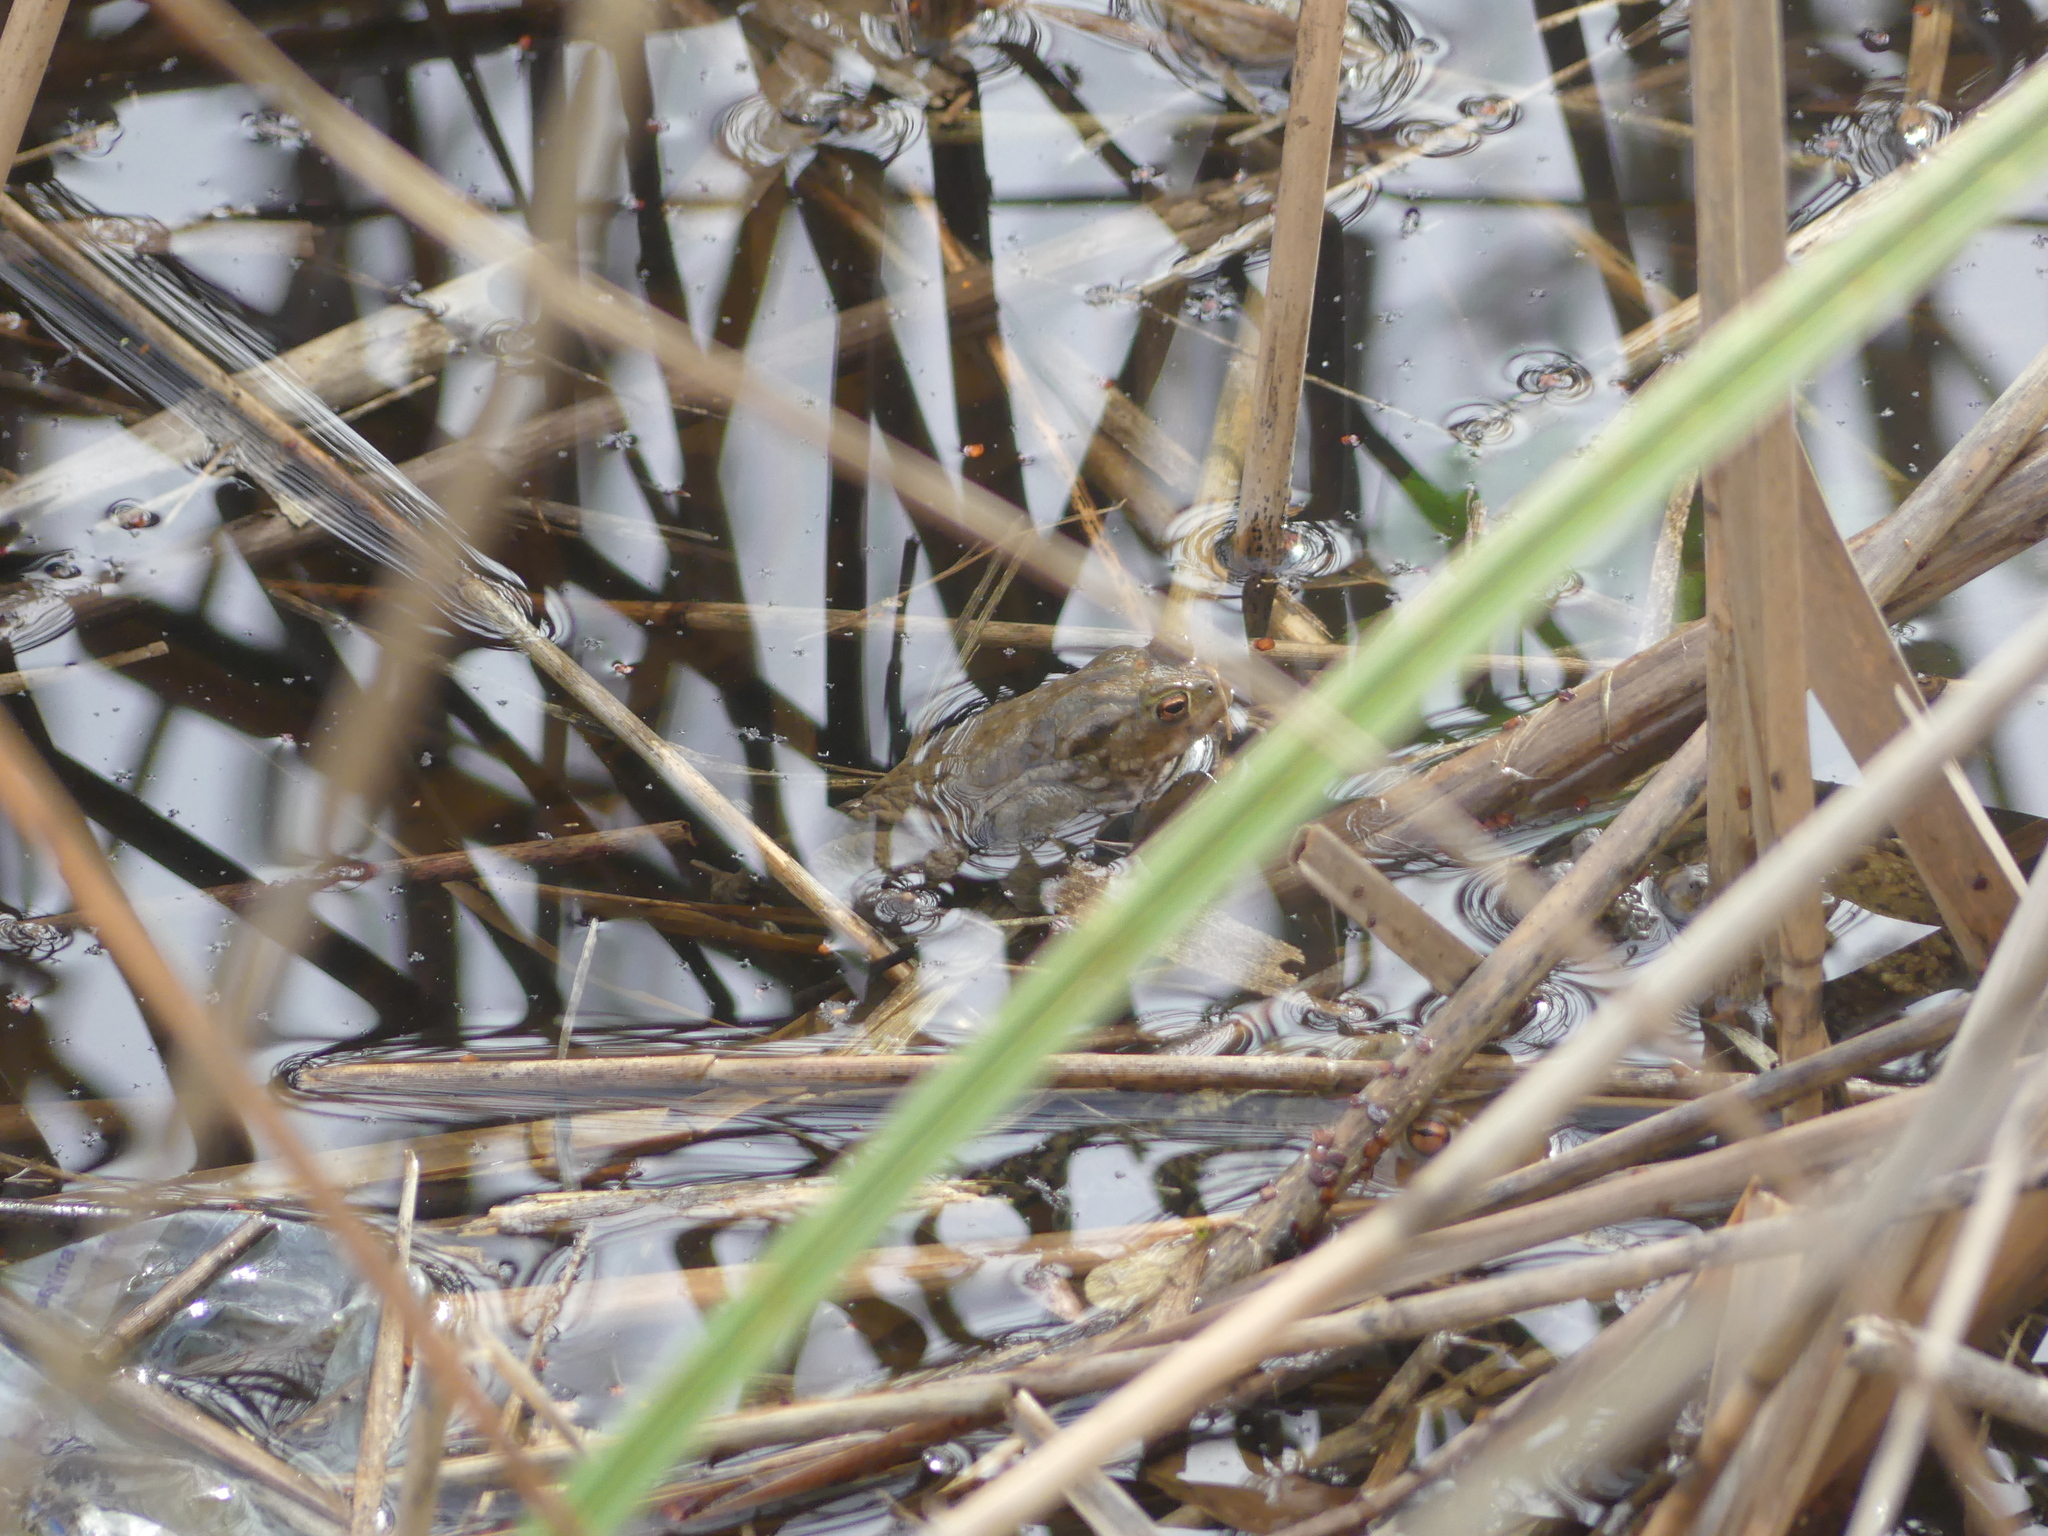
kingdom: Animalia
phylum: Chordata
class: Amphibia
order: Anura
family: Bufonidae
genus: Bufo
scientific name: Bufo bufo
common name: Common toad
